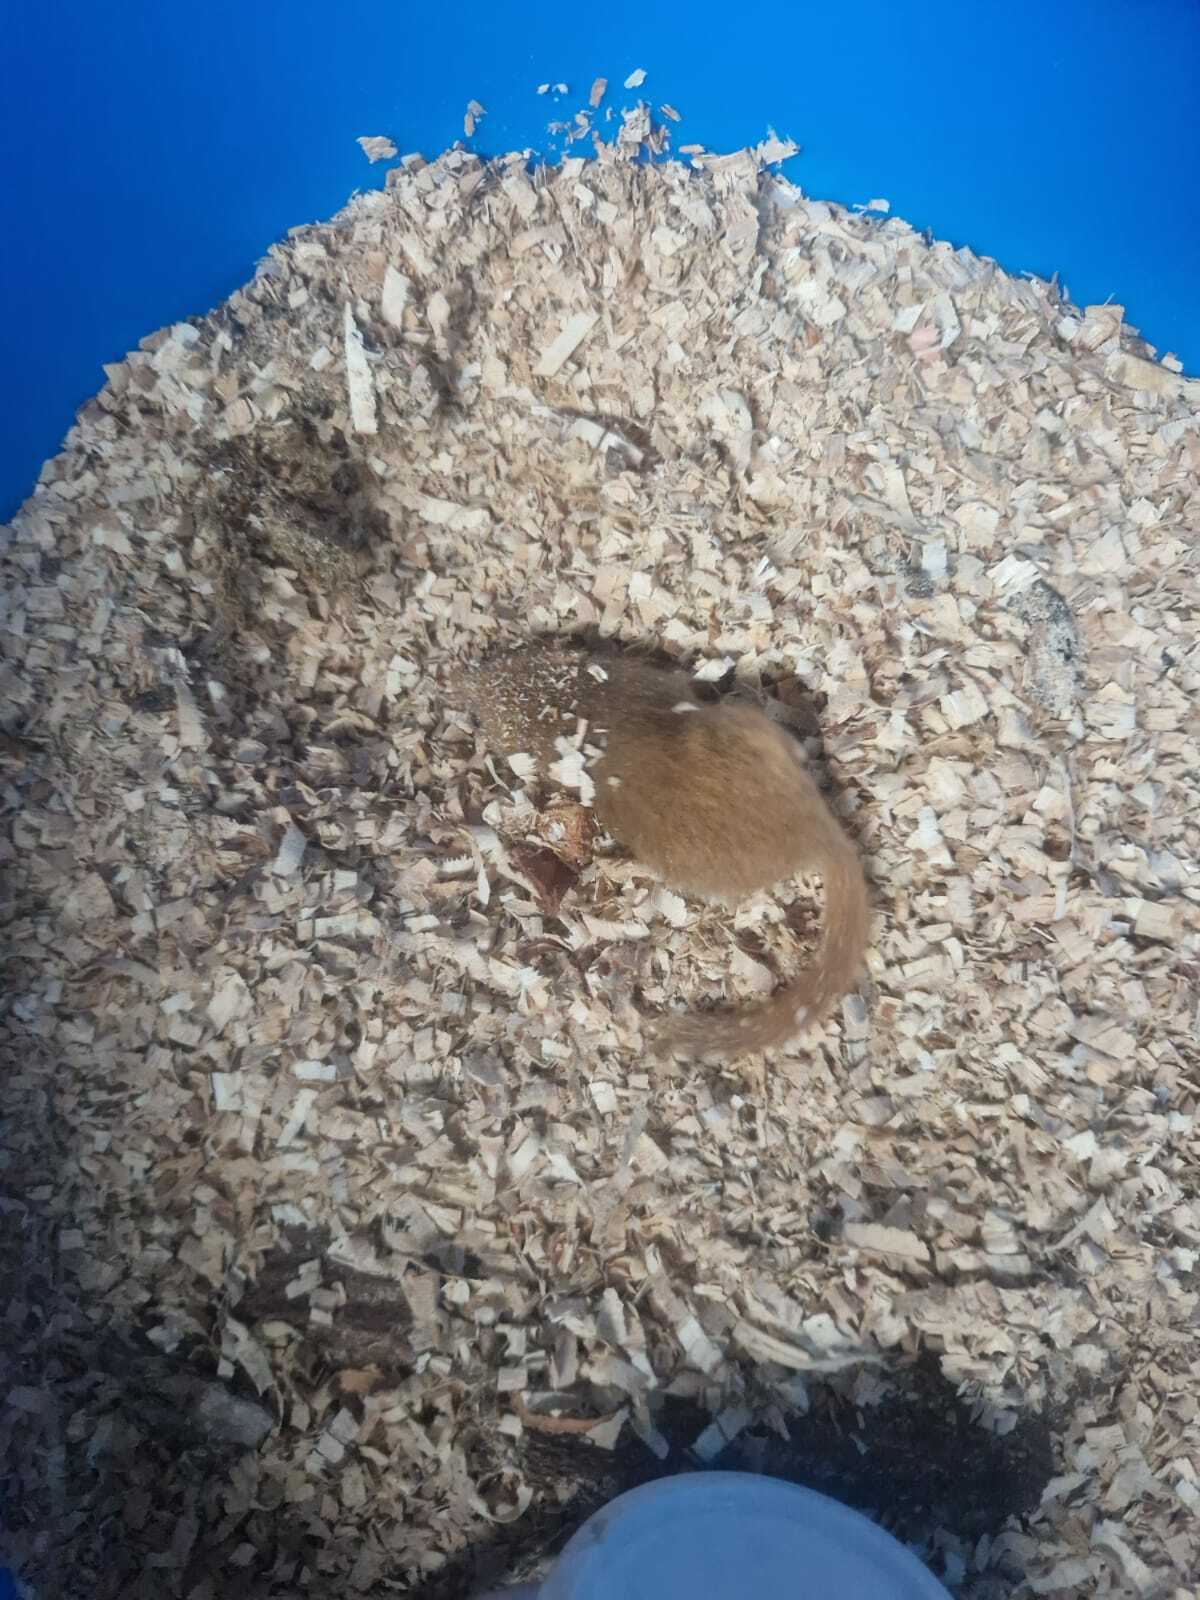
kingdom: Animalia
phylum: Chordata
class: Mammalia
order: Rodentia
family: Gliridae
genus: Muscardinus
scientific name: Muscardinus avellanarius
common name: Hazel dormouse
